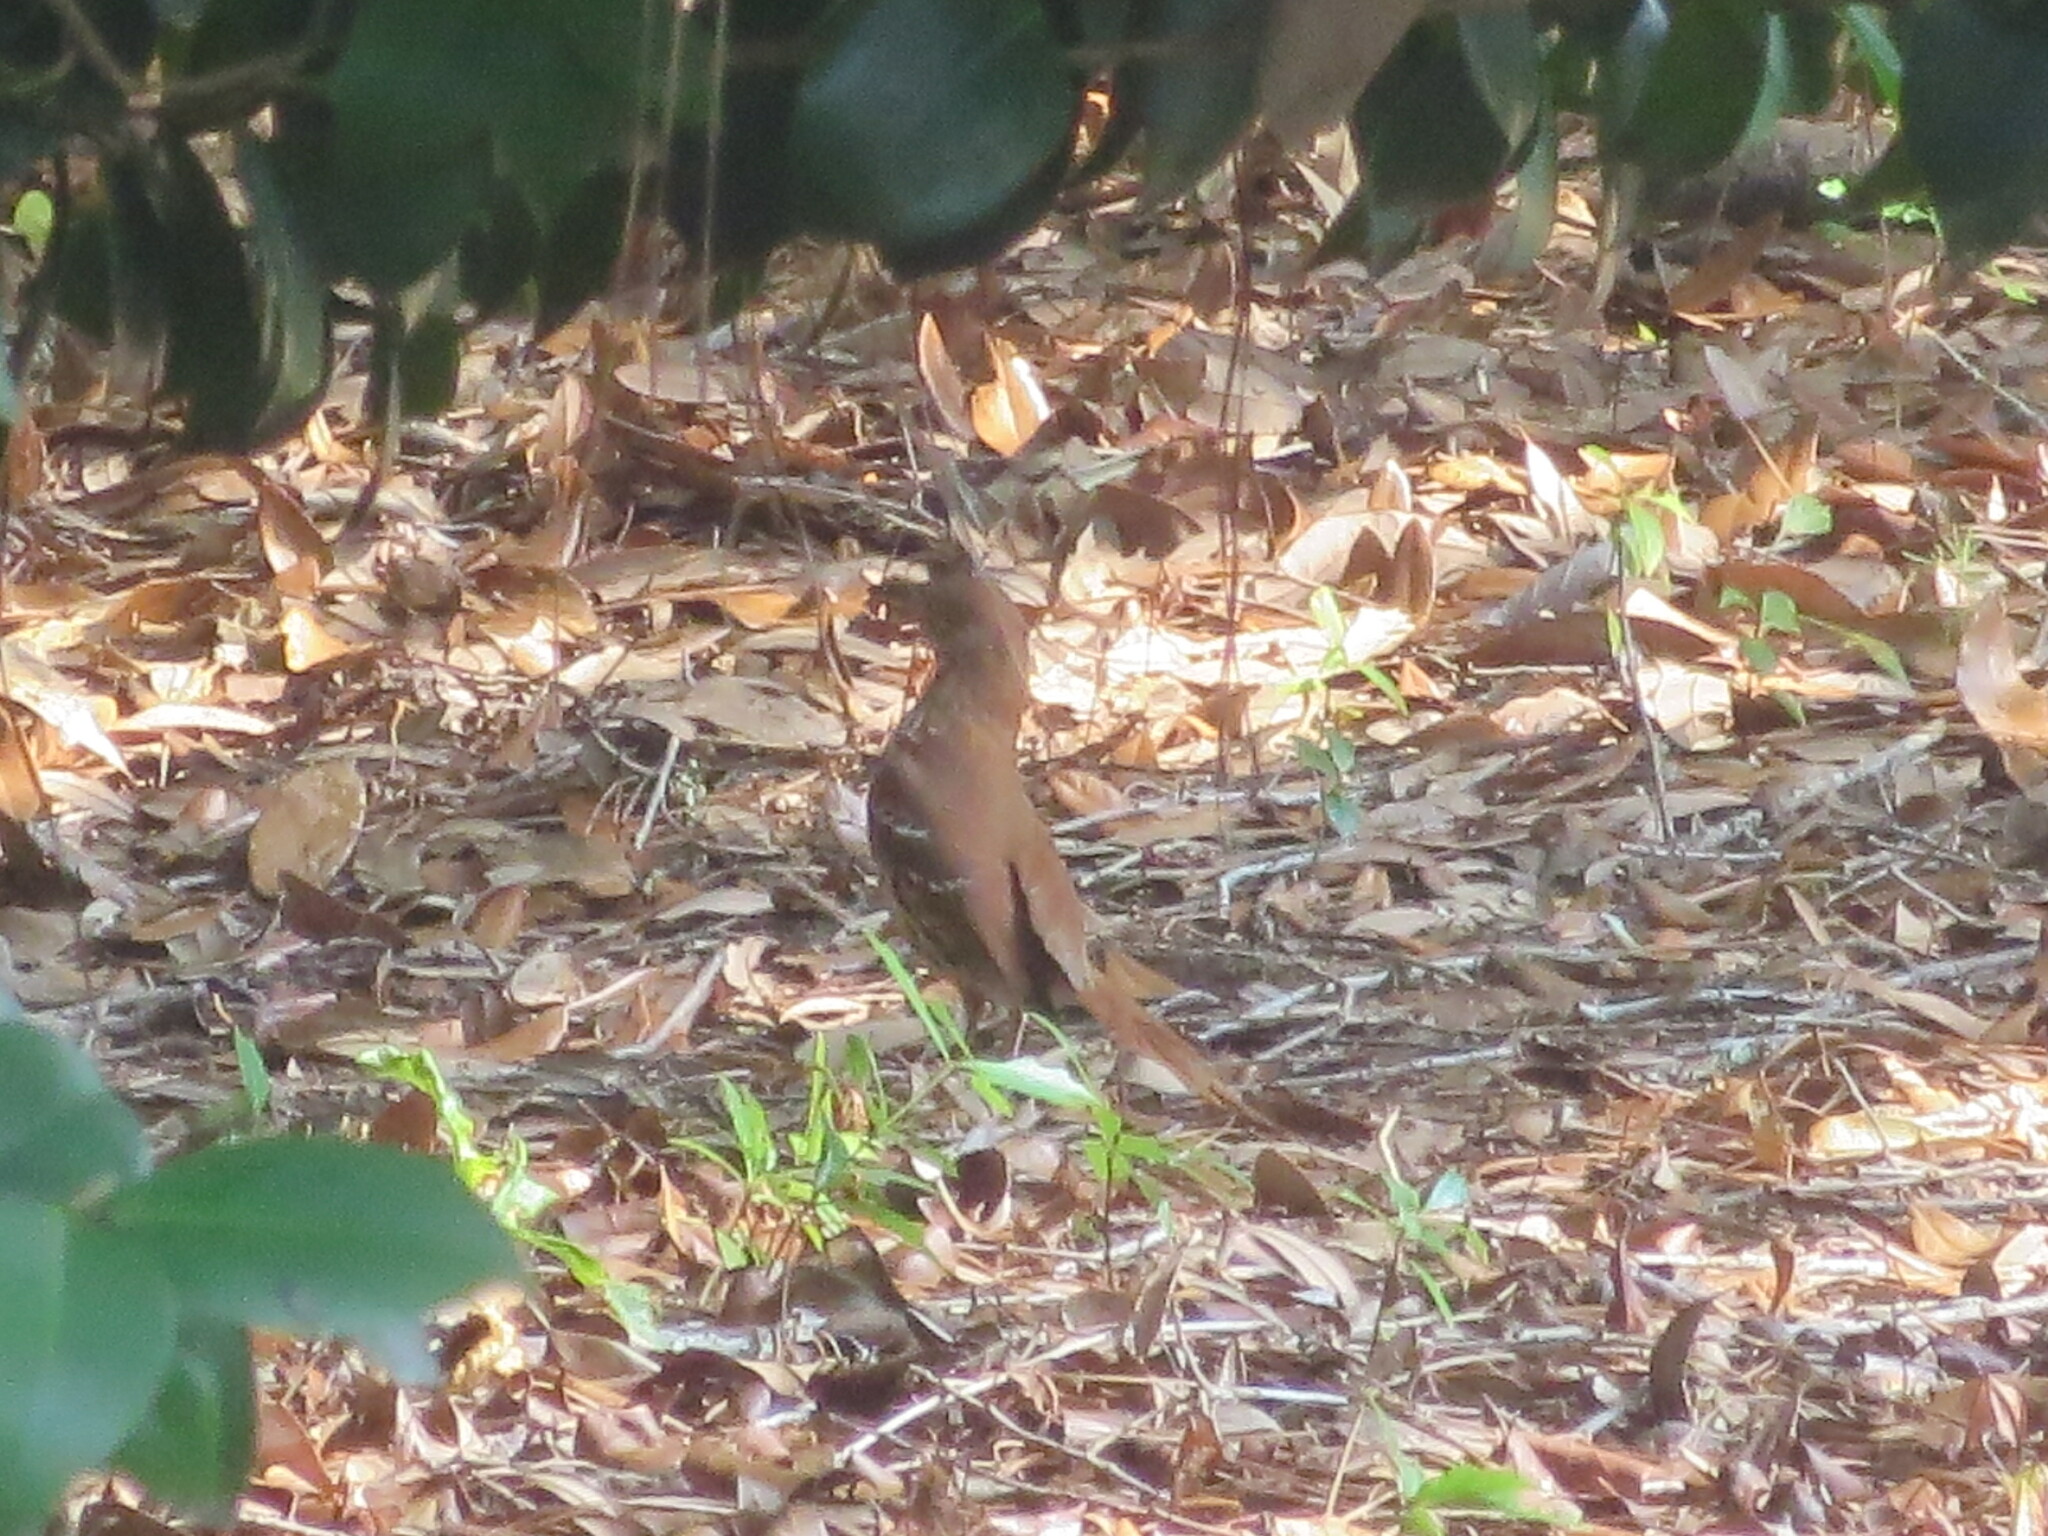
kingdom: Animalia
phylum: Chordata
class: Aves
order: Passeriformes
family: Mimidae
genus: Toxostoma
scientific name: Toxostoma rufum
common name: Brown thrasher
